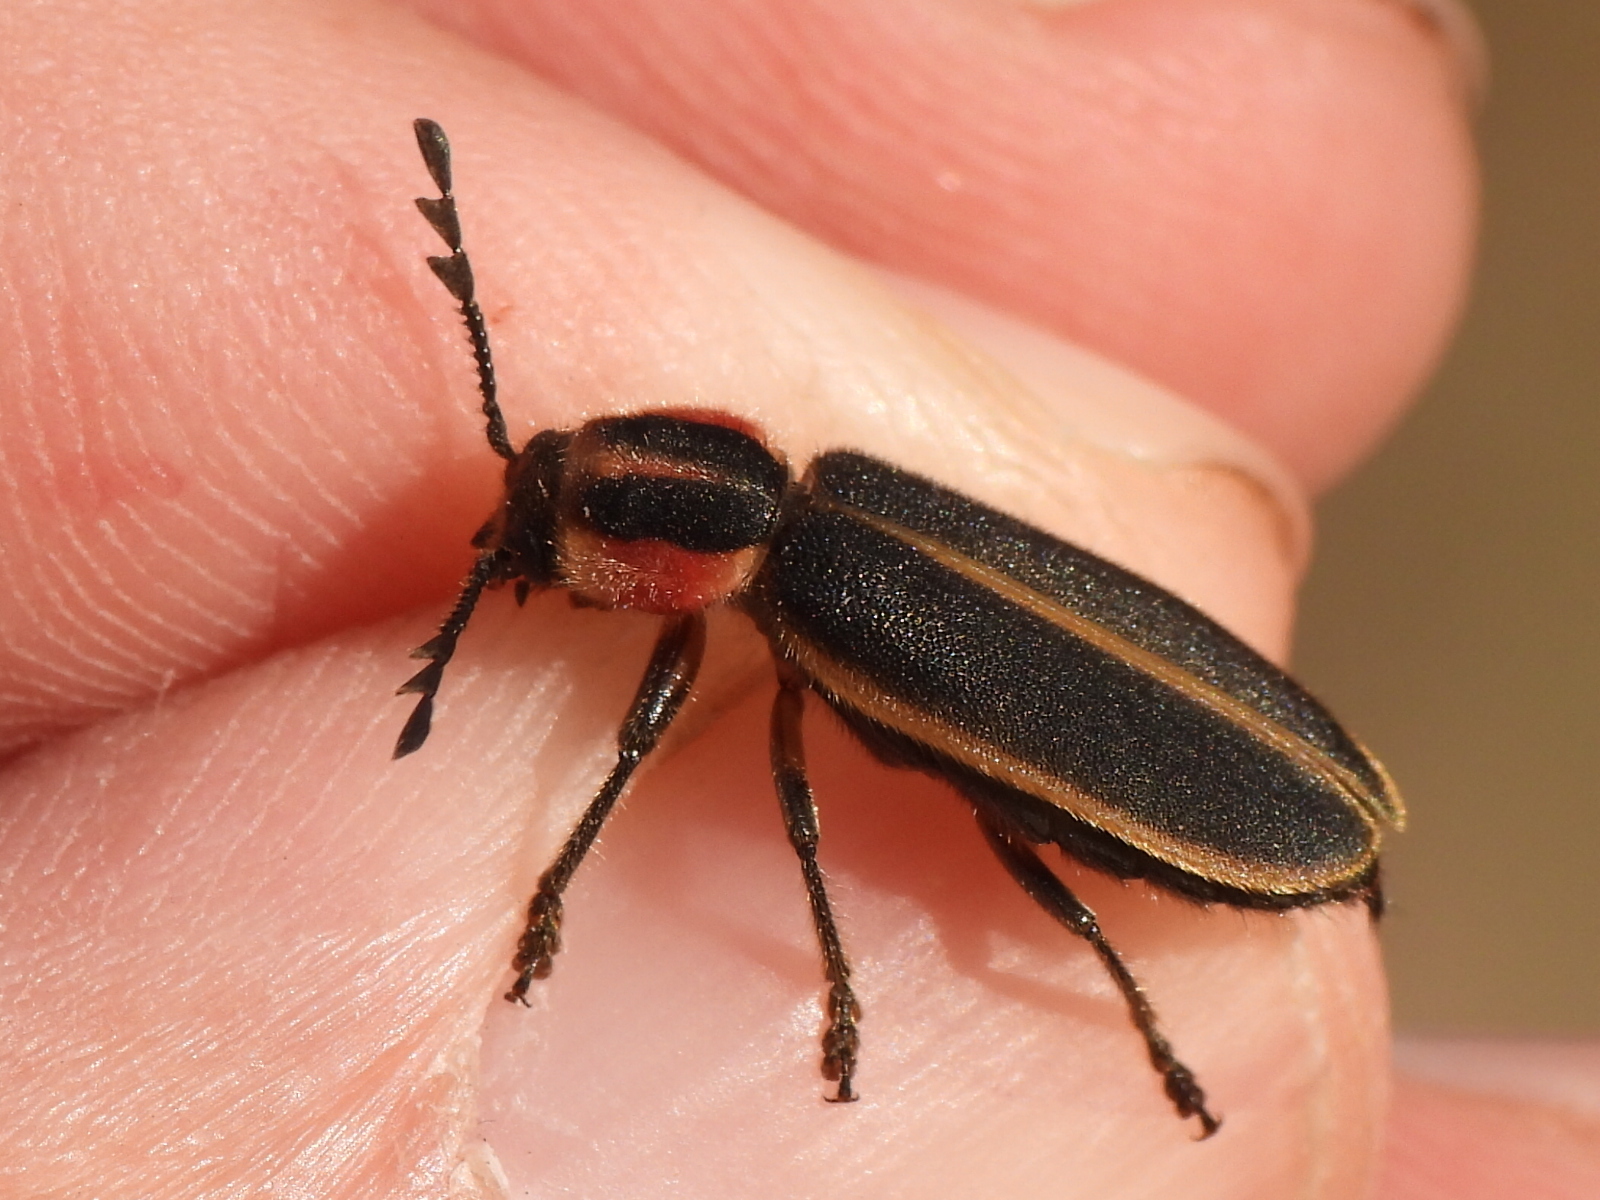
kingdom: Animalia
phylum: Arthropoda
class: Insecta
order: Coleoptera
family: Cleridae
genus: Chariessa
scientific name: Chariessa pilosa
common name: Pilose checkered beetle
